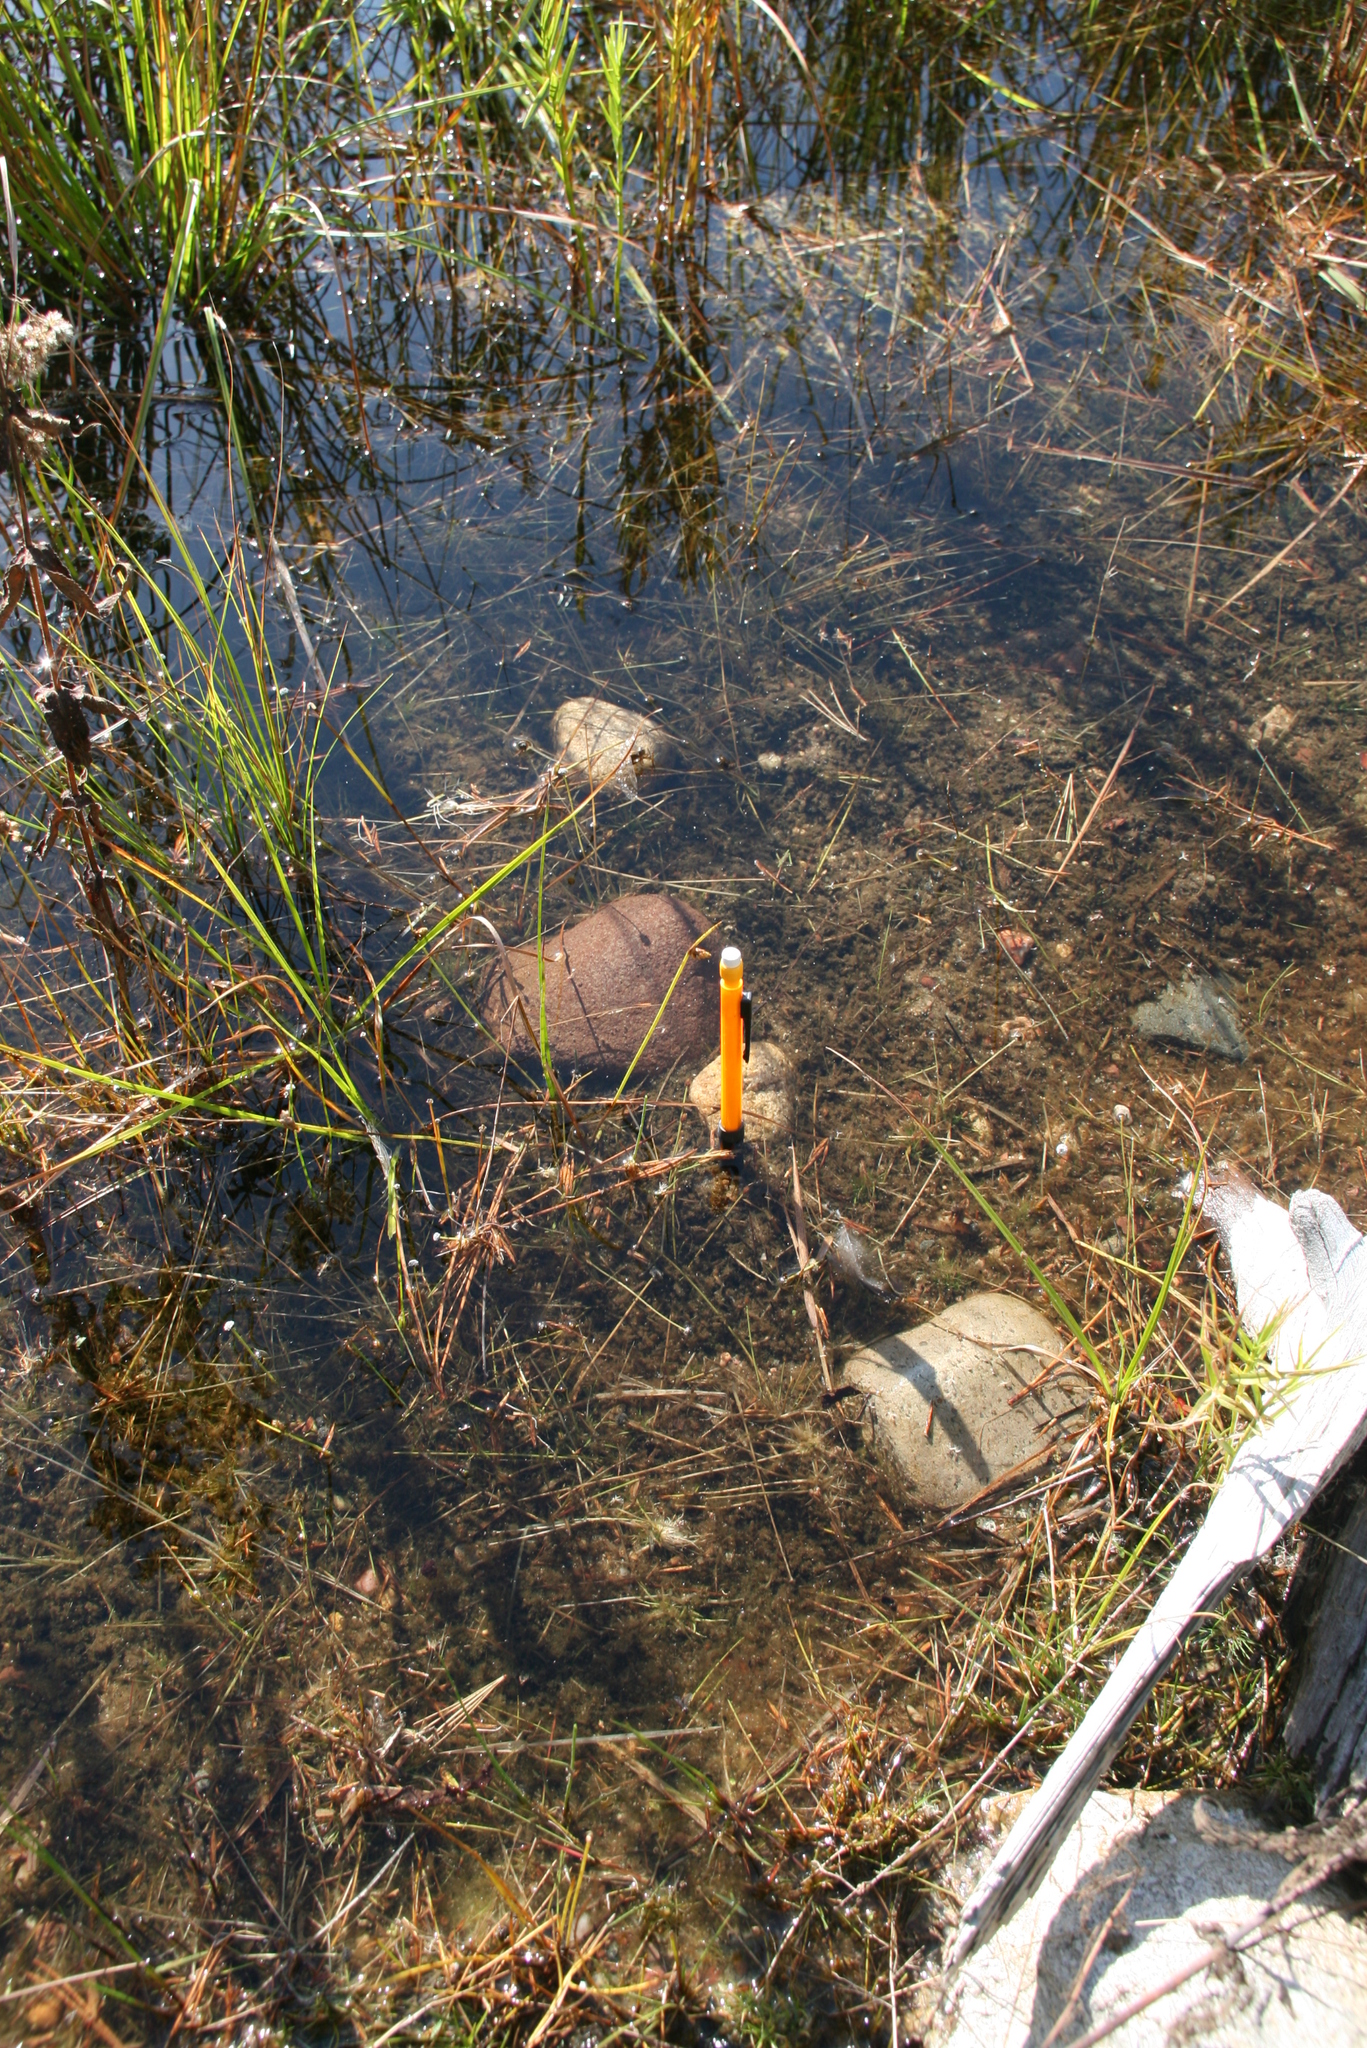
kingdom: Plantae
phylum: Tracheophyta
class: Liliopsida
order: Poales
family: Cyperaceae
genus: Schoenoplectiella
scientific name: Schoenoplectiella purshiana
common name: Weak-stalked bulrush
